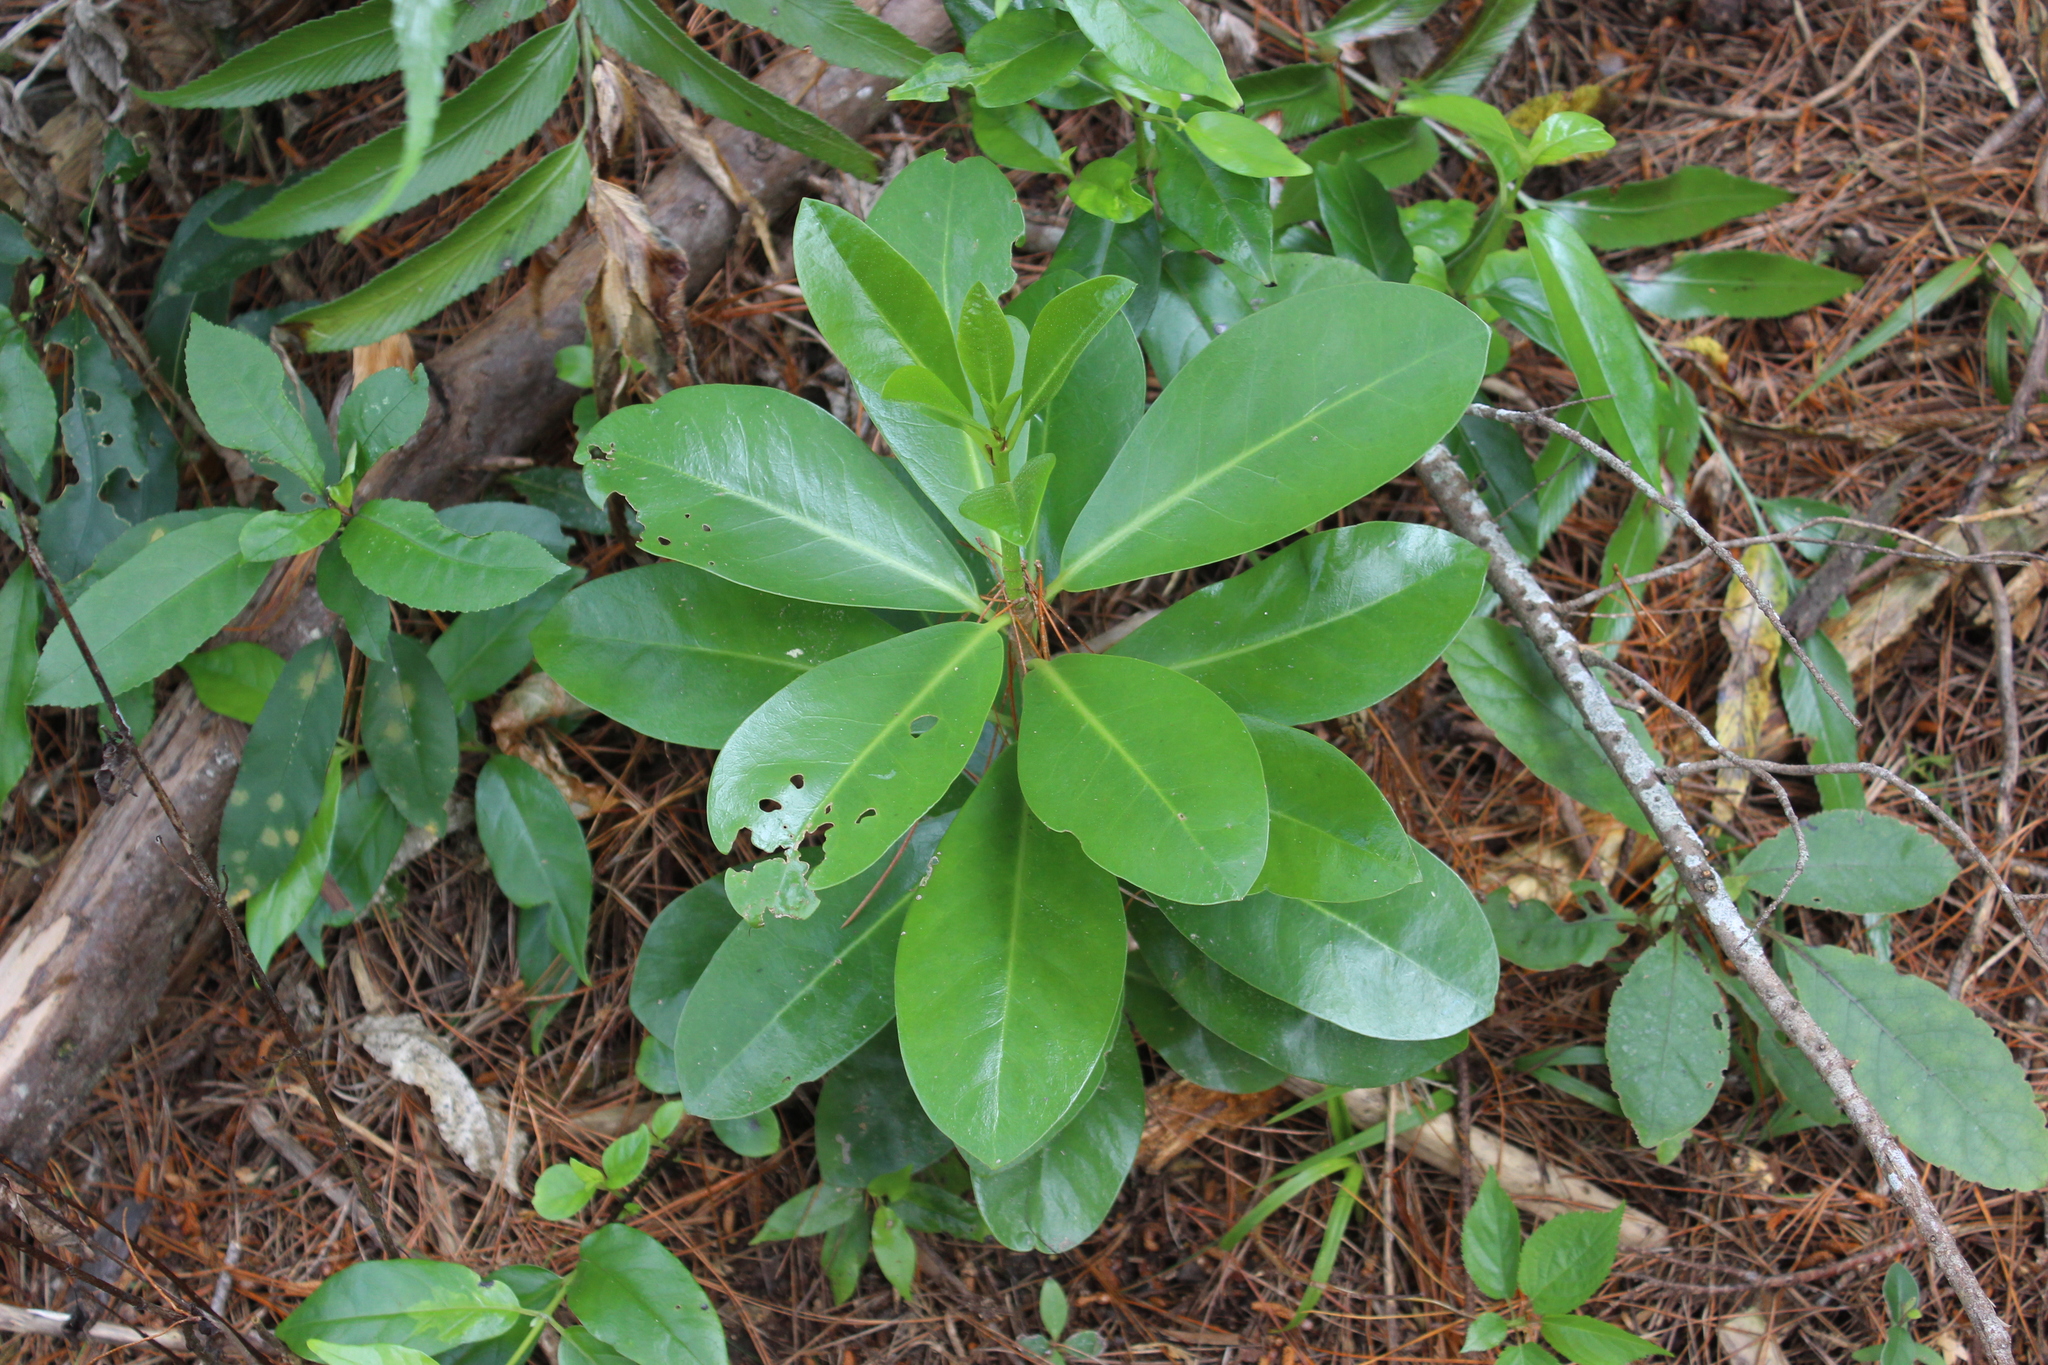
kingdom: Plantae
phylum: Tracheophyta
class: Magnoliopsida
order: Cucurbitales
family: Corynocarpaceae
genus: Corynocarpus
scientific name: Corynocarpus laevigatus
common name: New zealand laurel
